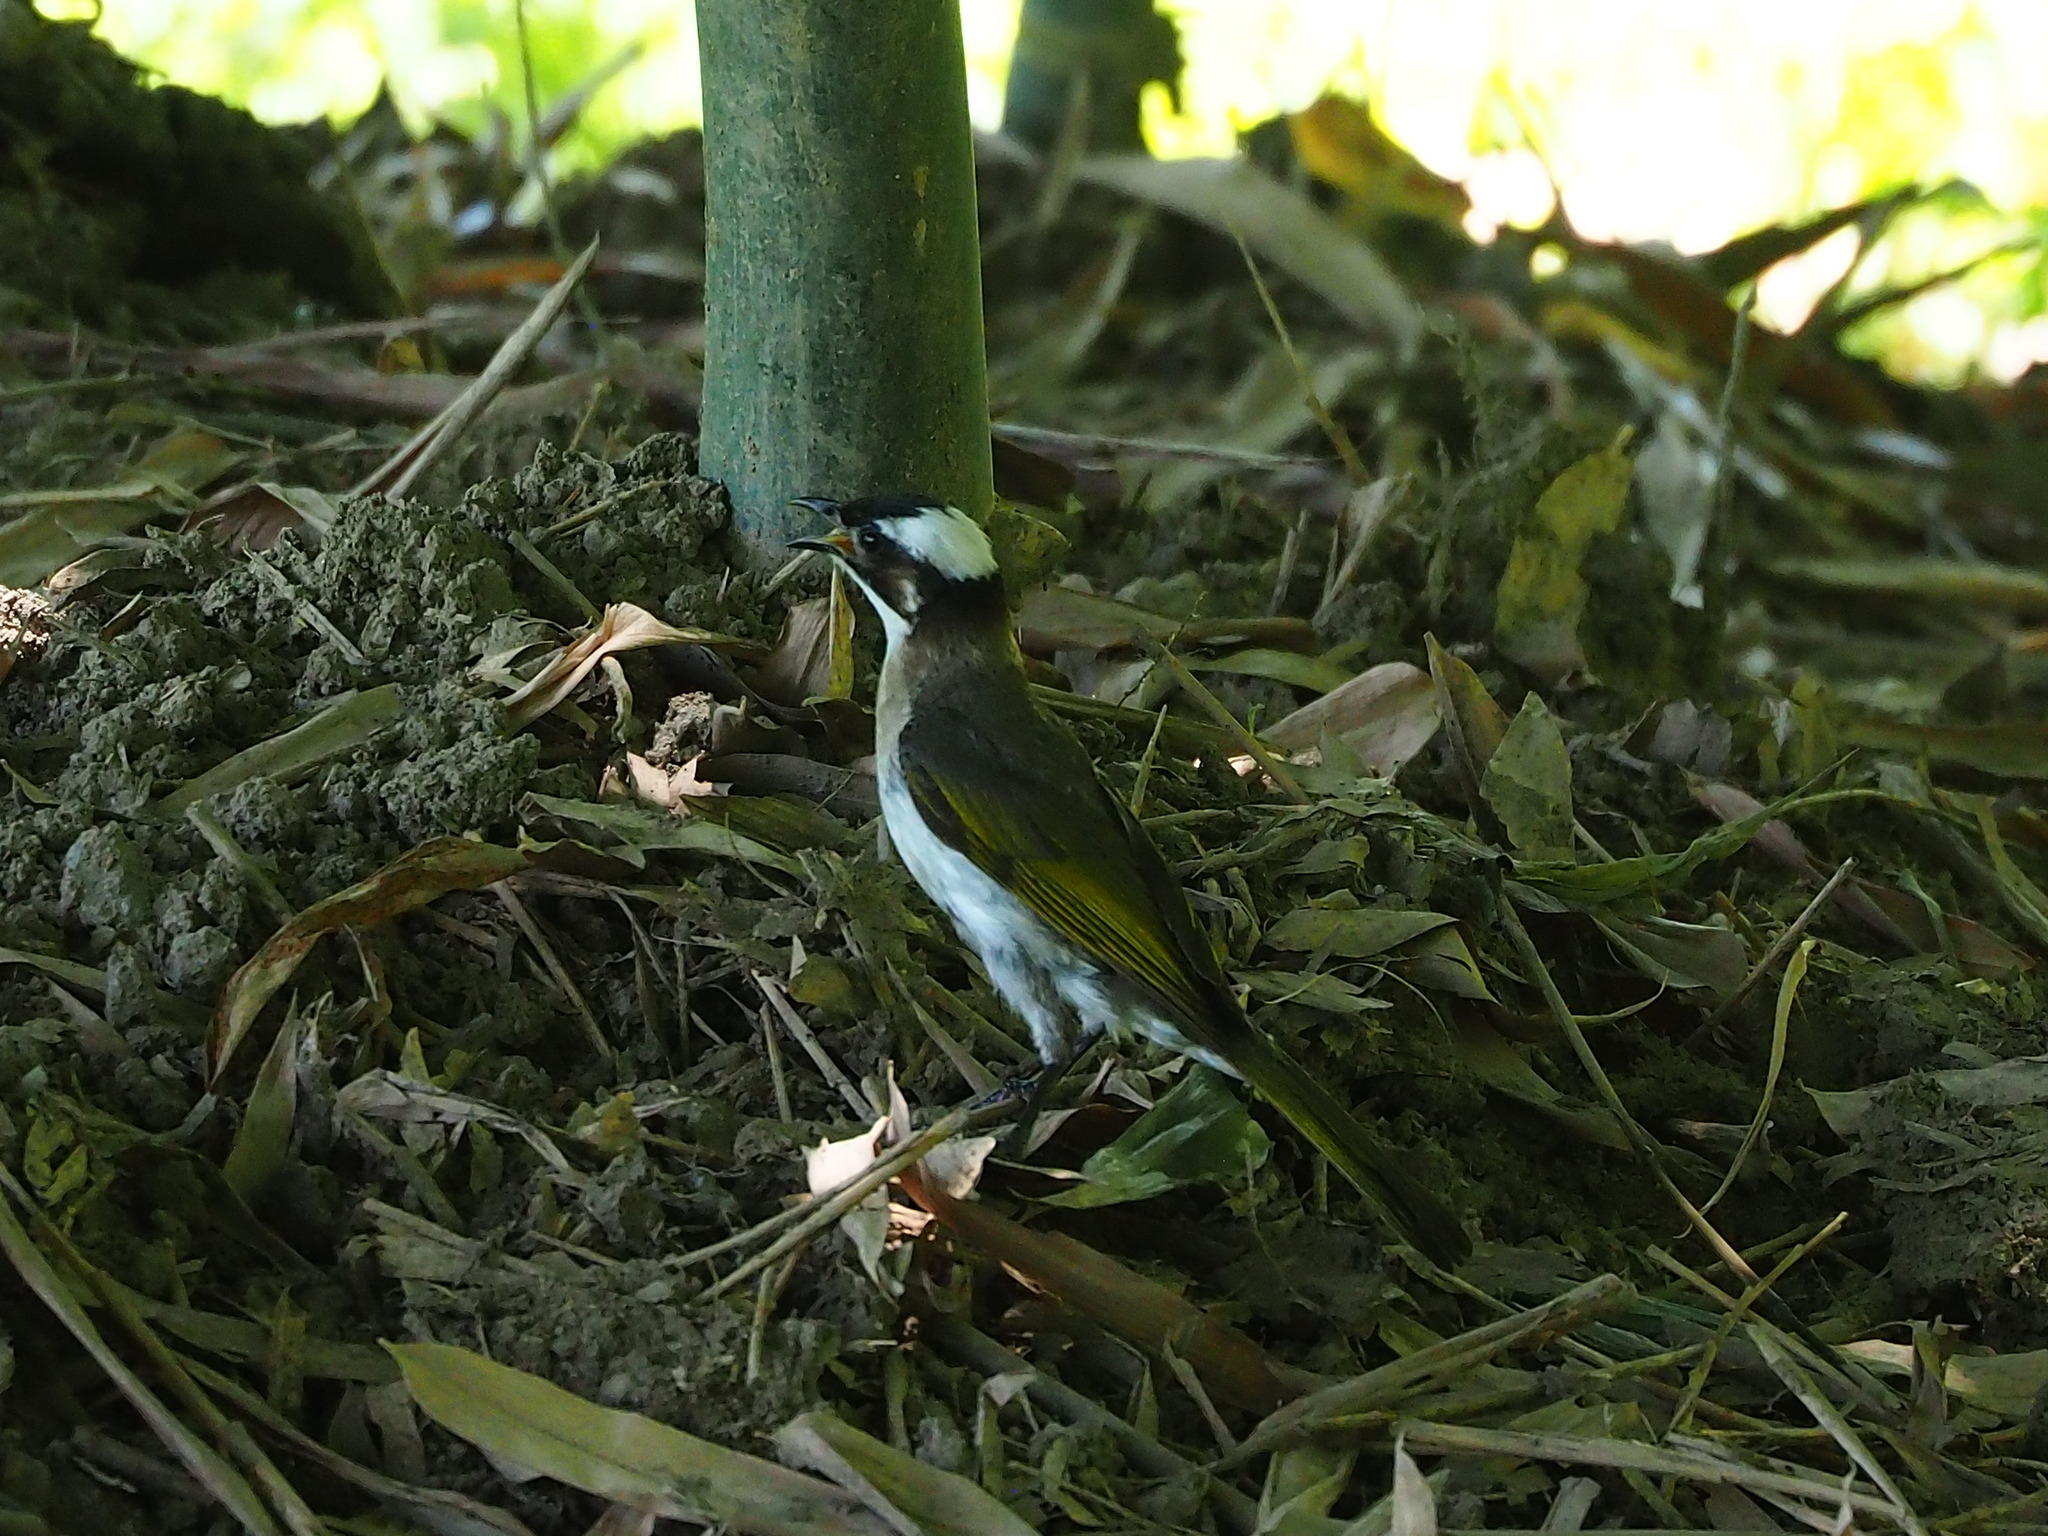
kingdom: Animalia
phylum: Chordata
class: Aves
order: Passeriformes
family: Pycnonotidae
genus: Pycnonotus
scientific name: Pycnonotus sinensis
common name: Light-vented bulbul
